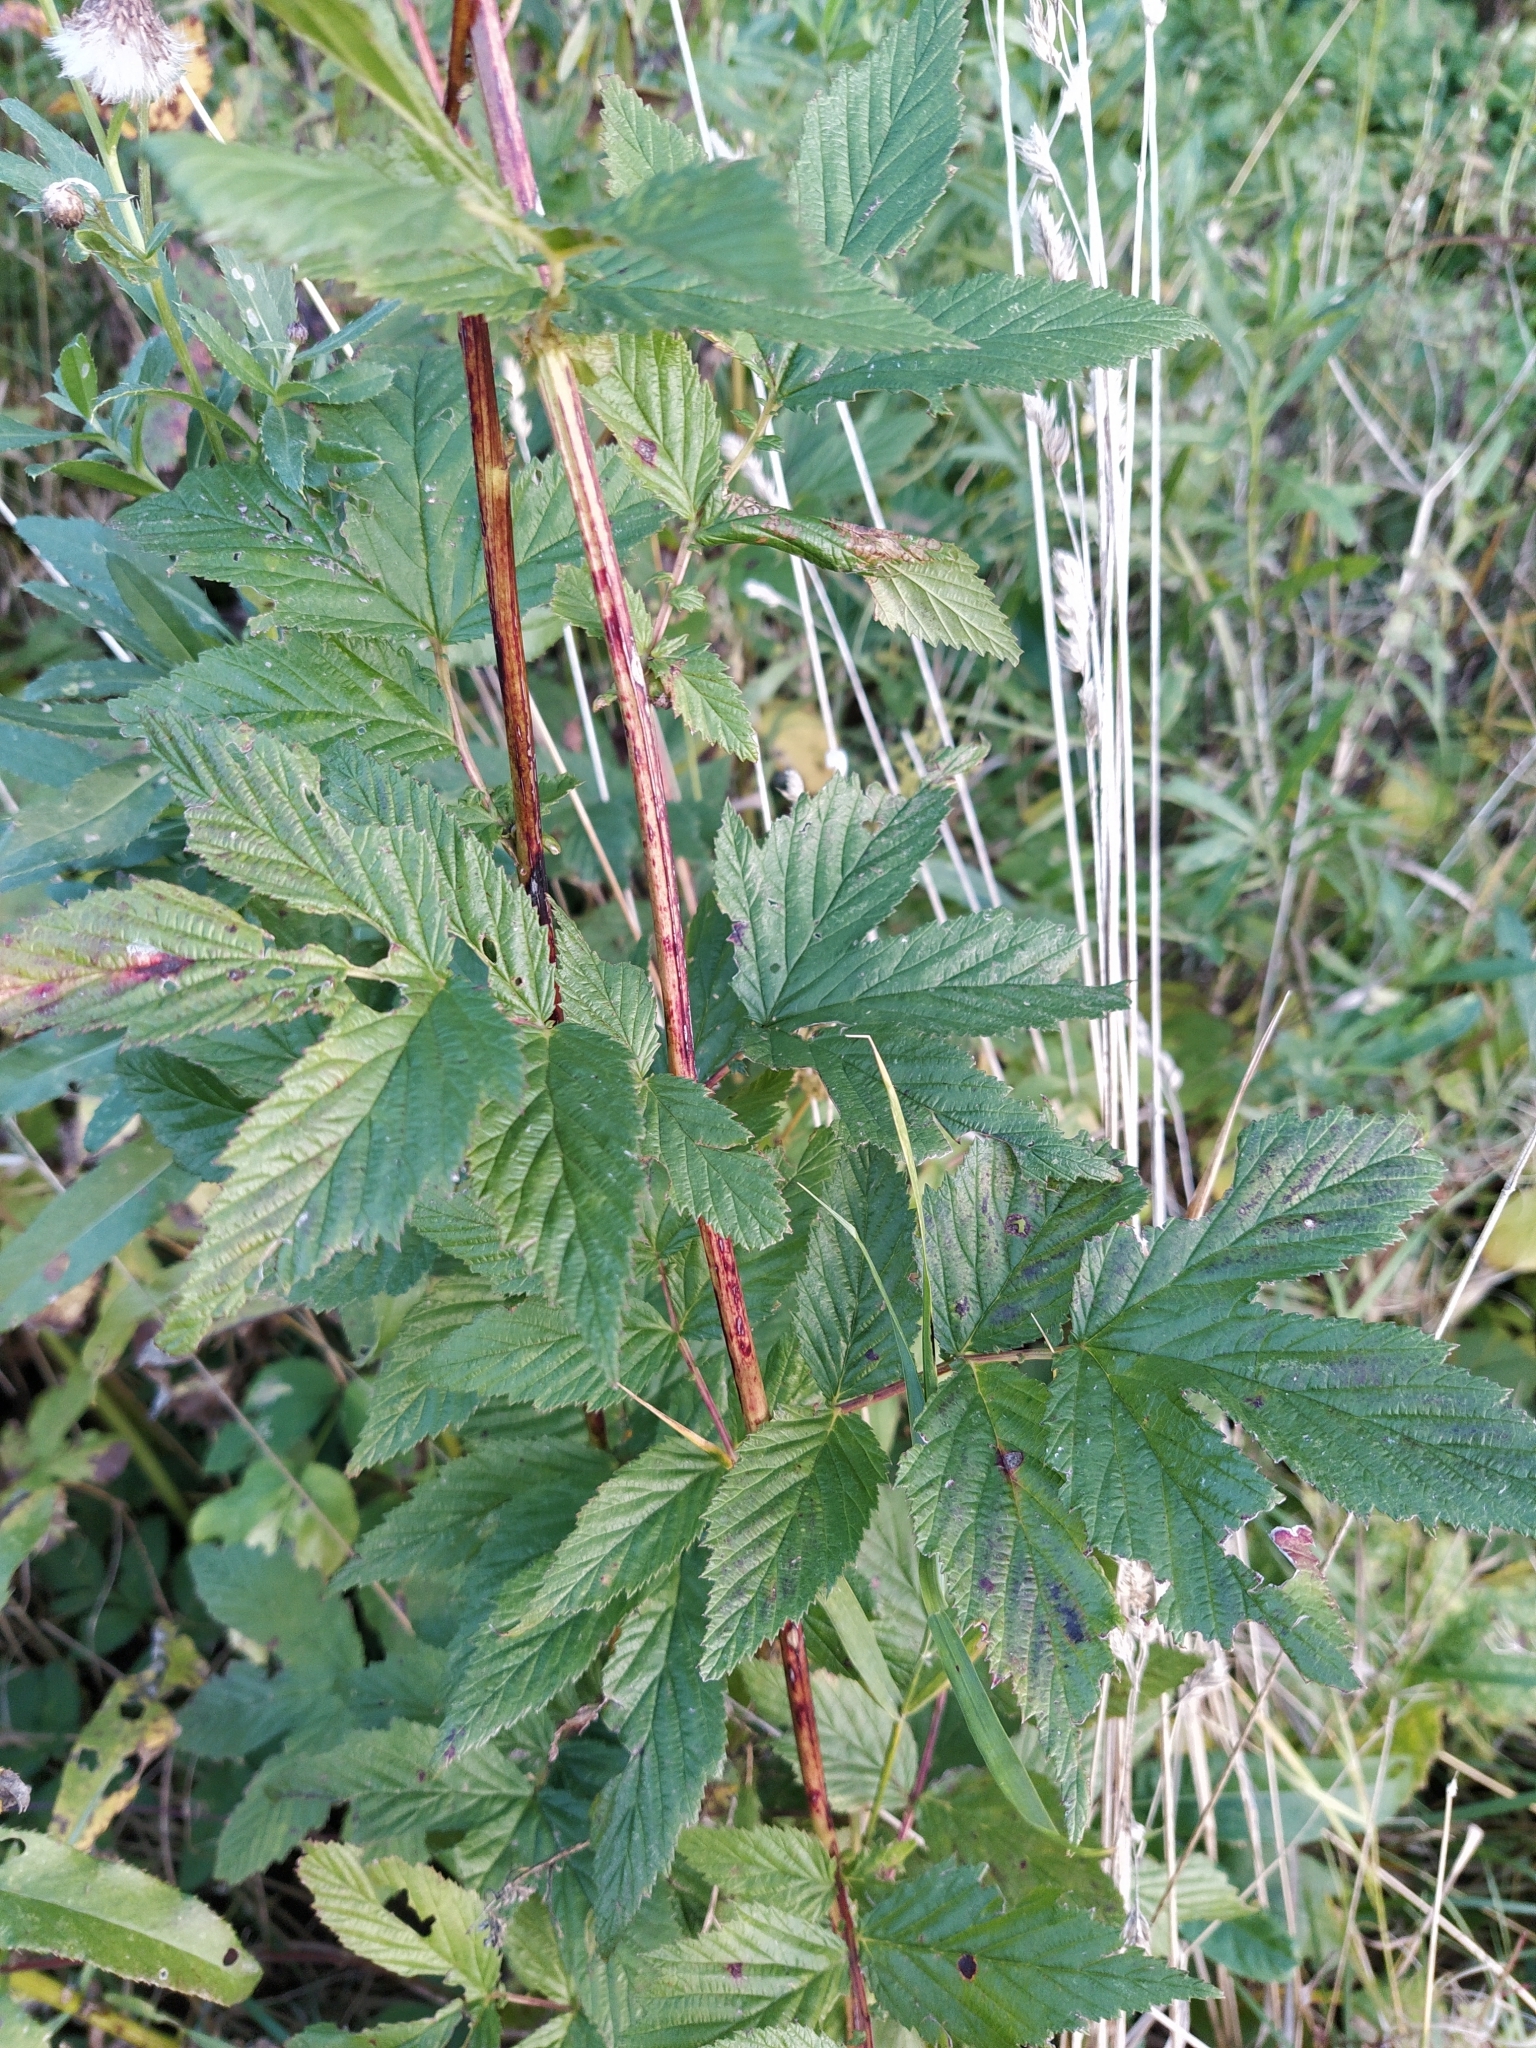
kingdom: Plantae
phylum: Tracheophyta
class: Magnoliopsida
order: Rosales
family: Rosaceae
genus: Filipendula
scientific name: Filipendula ulmaria
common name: Meadowsweet
